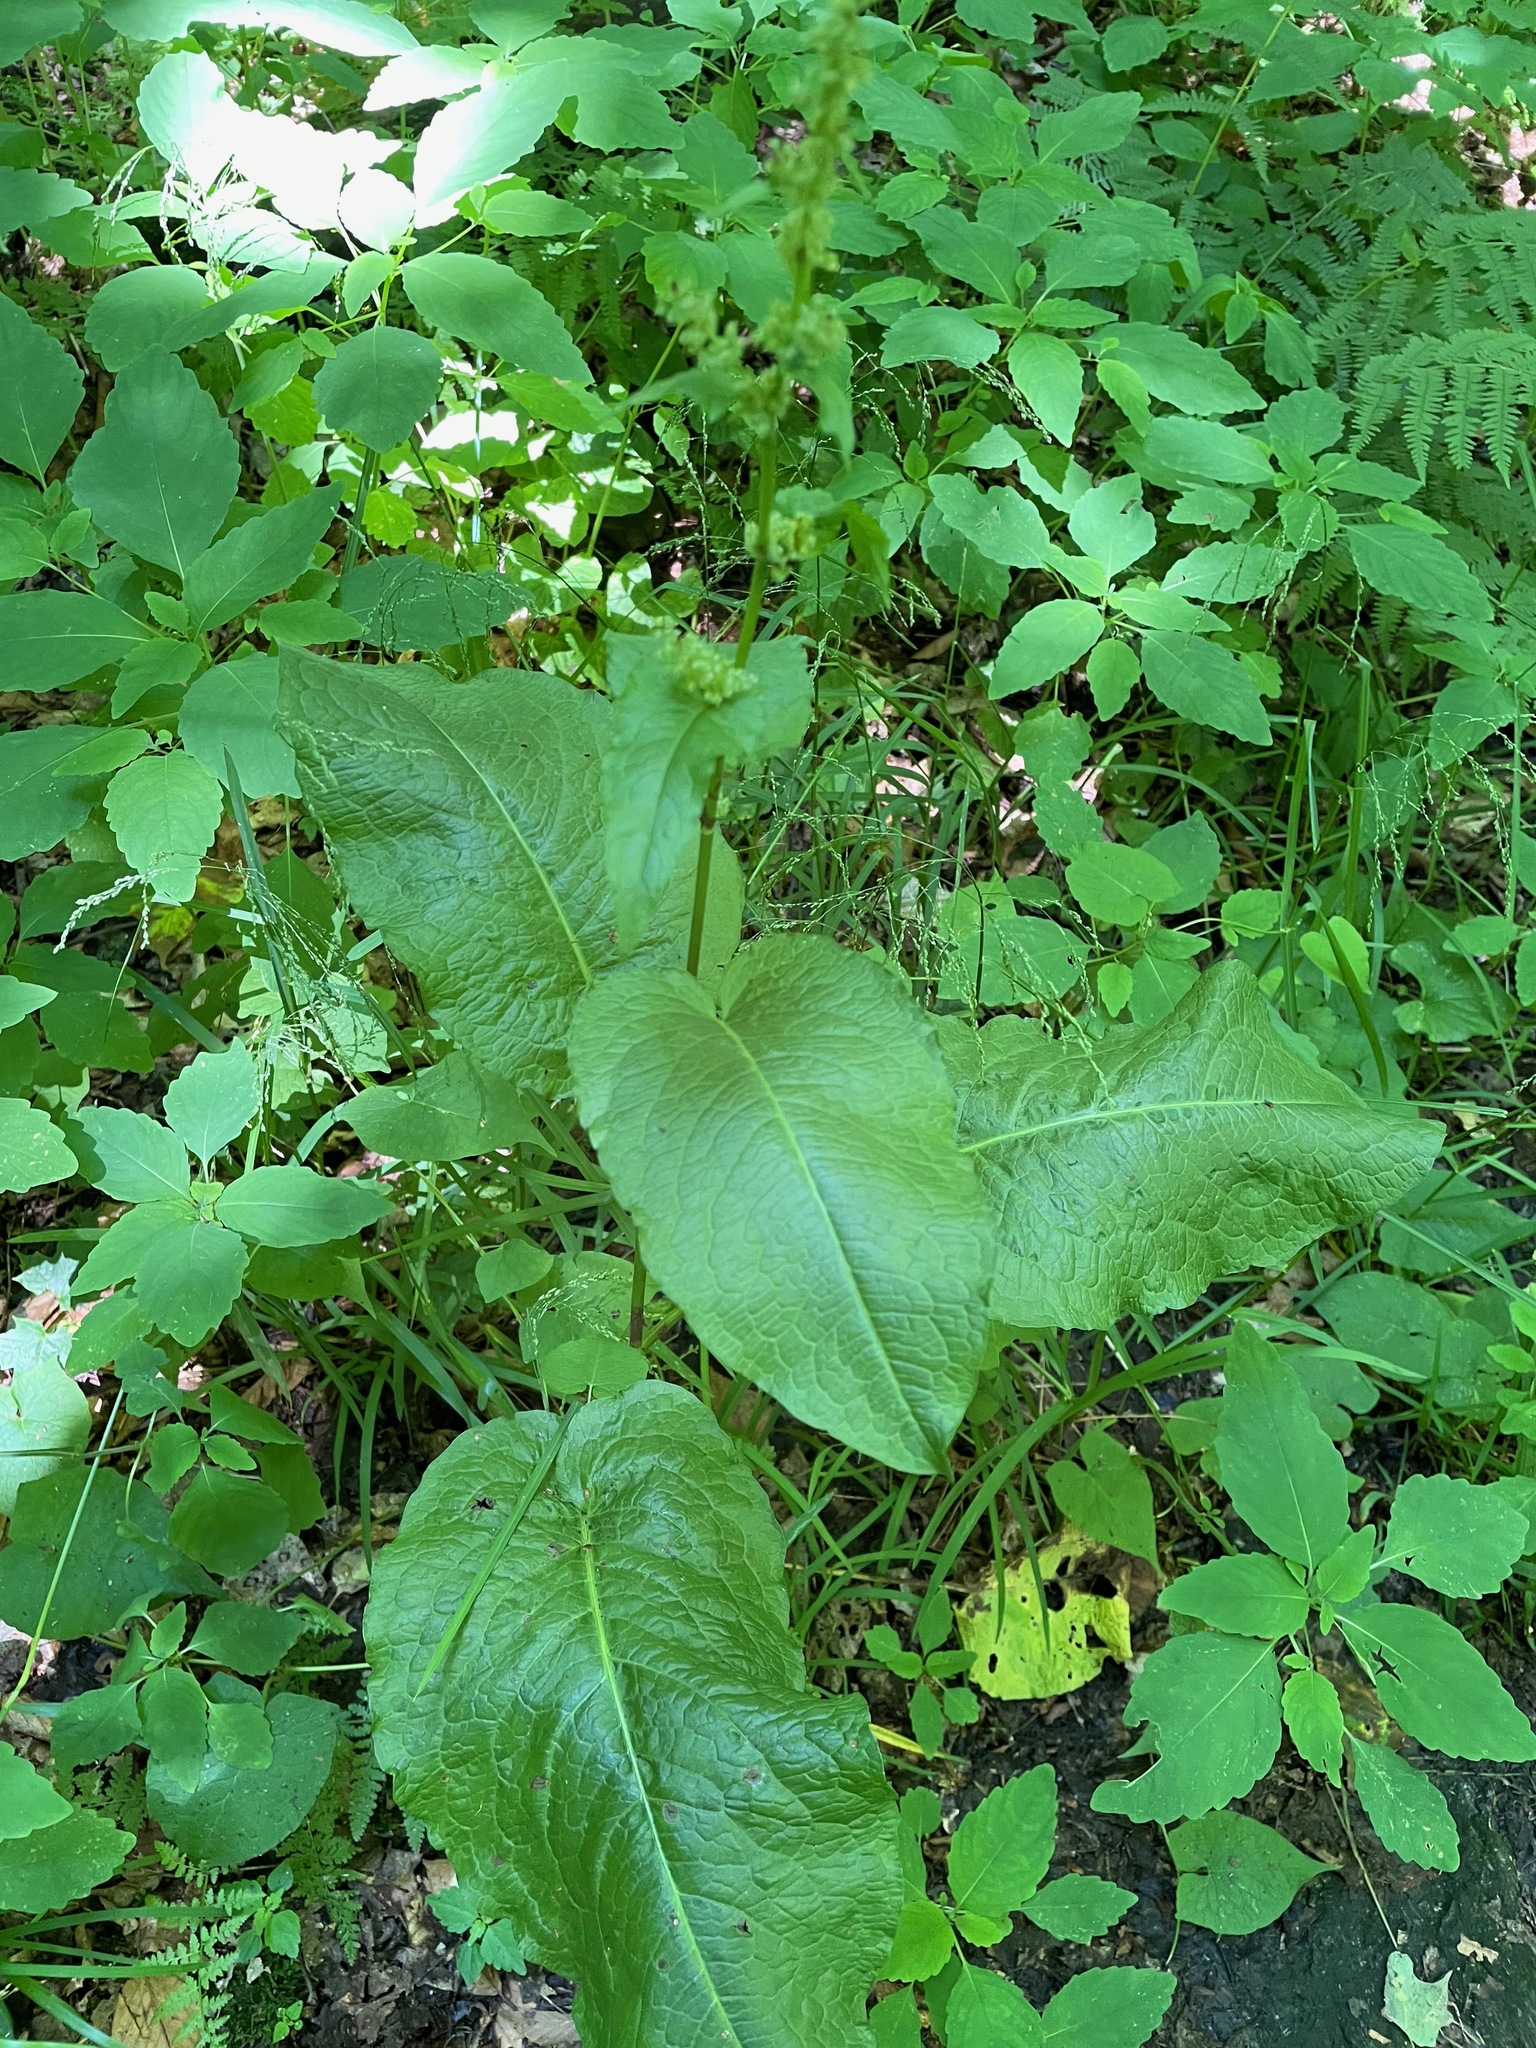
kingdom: Plantae
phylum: Tracheophyta
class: Magnoliopsida
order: Caryophyllales
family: Polygonaceae
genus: Rumex
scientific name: Rumex obtusifolius
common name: Bitter dock
